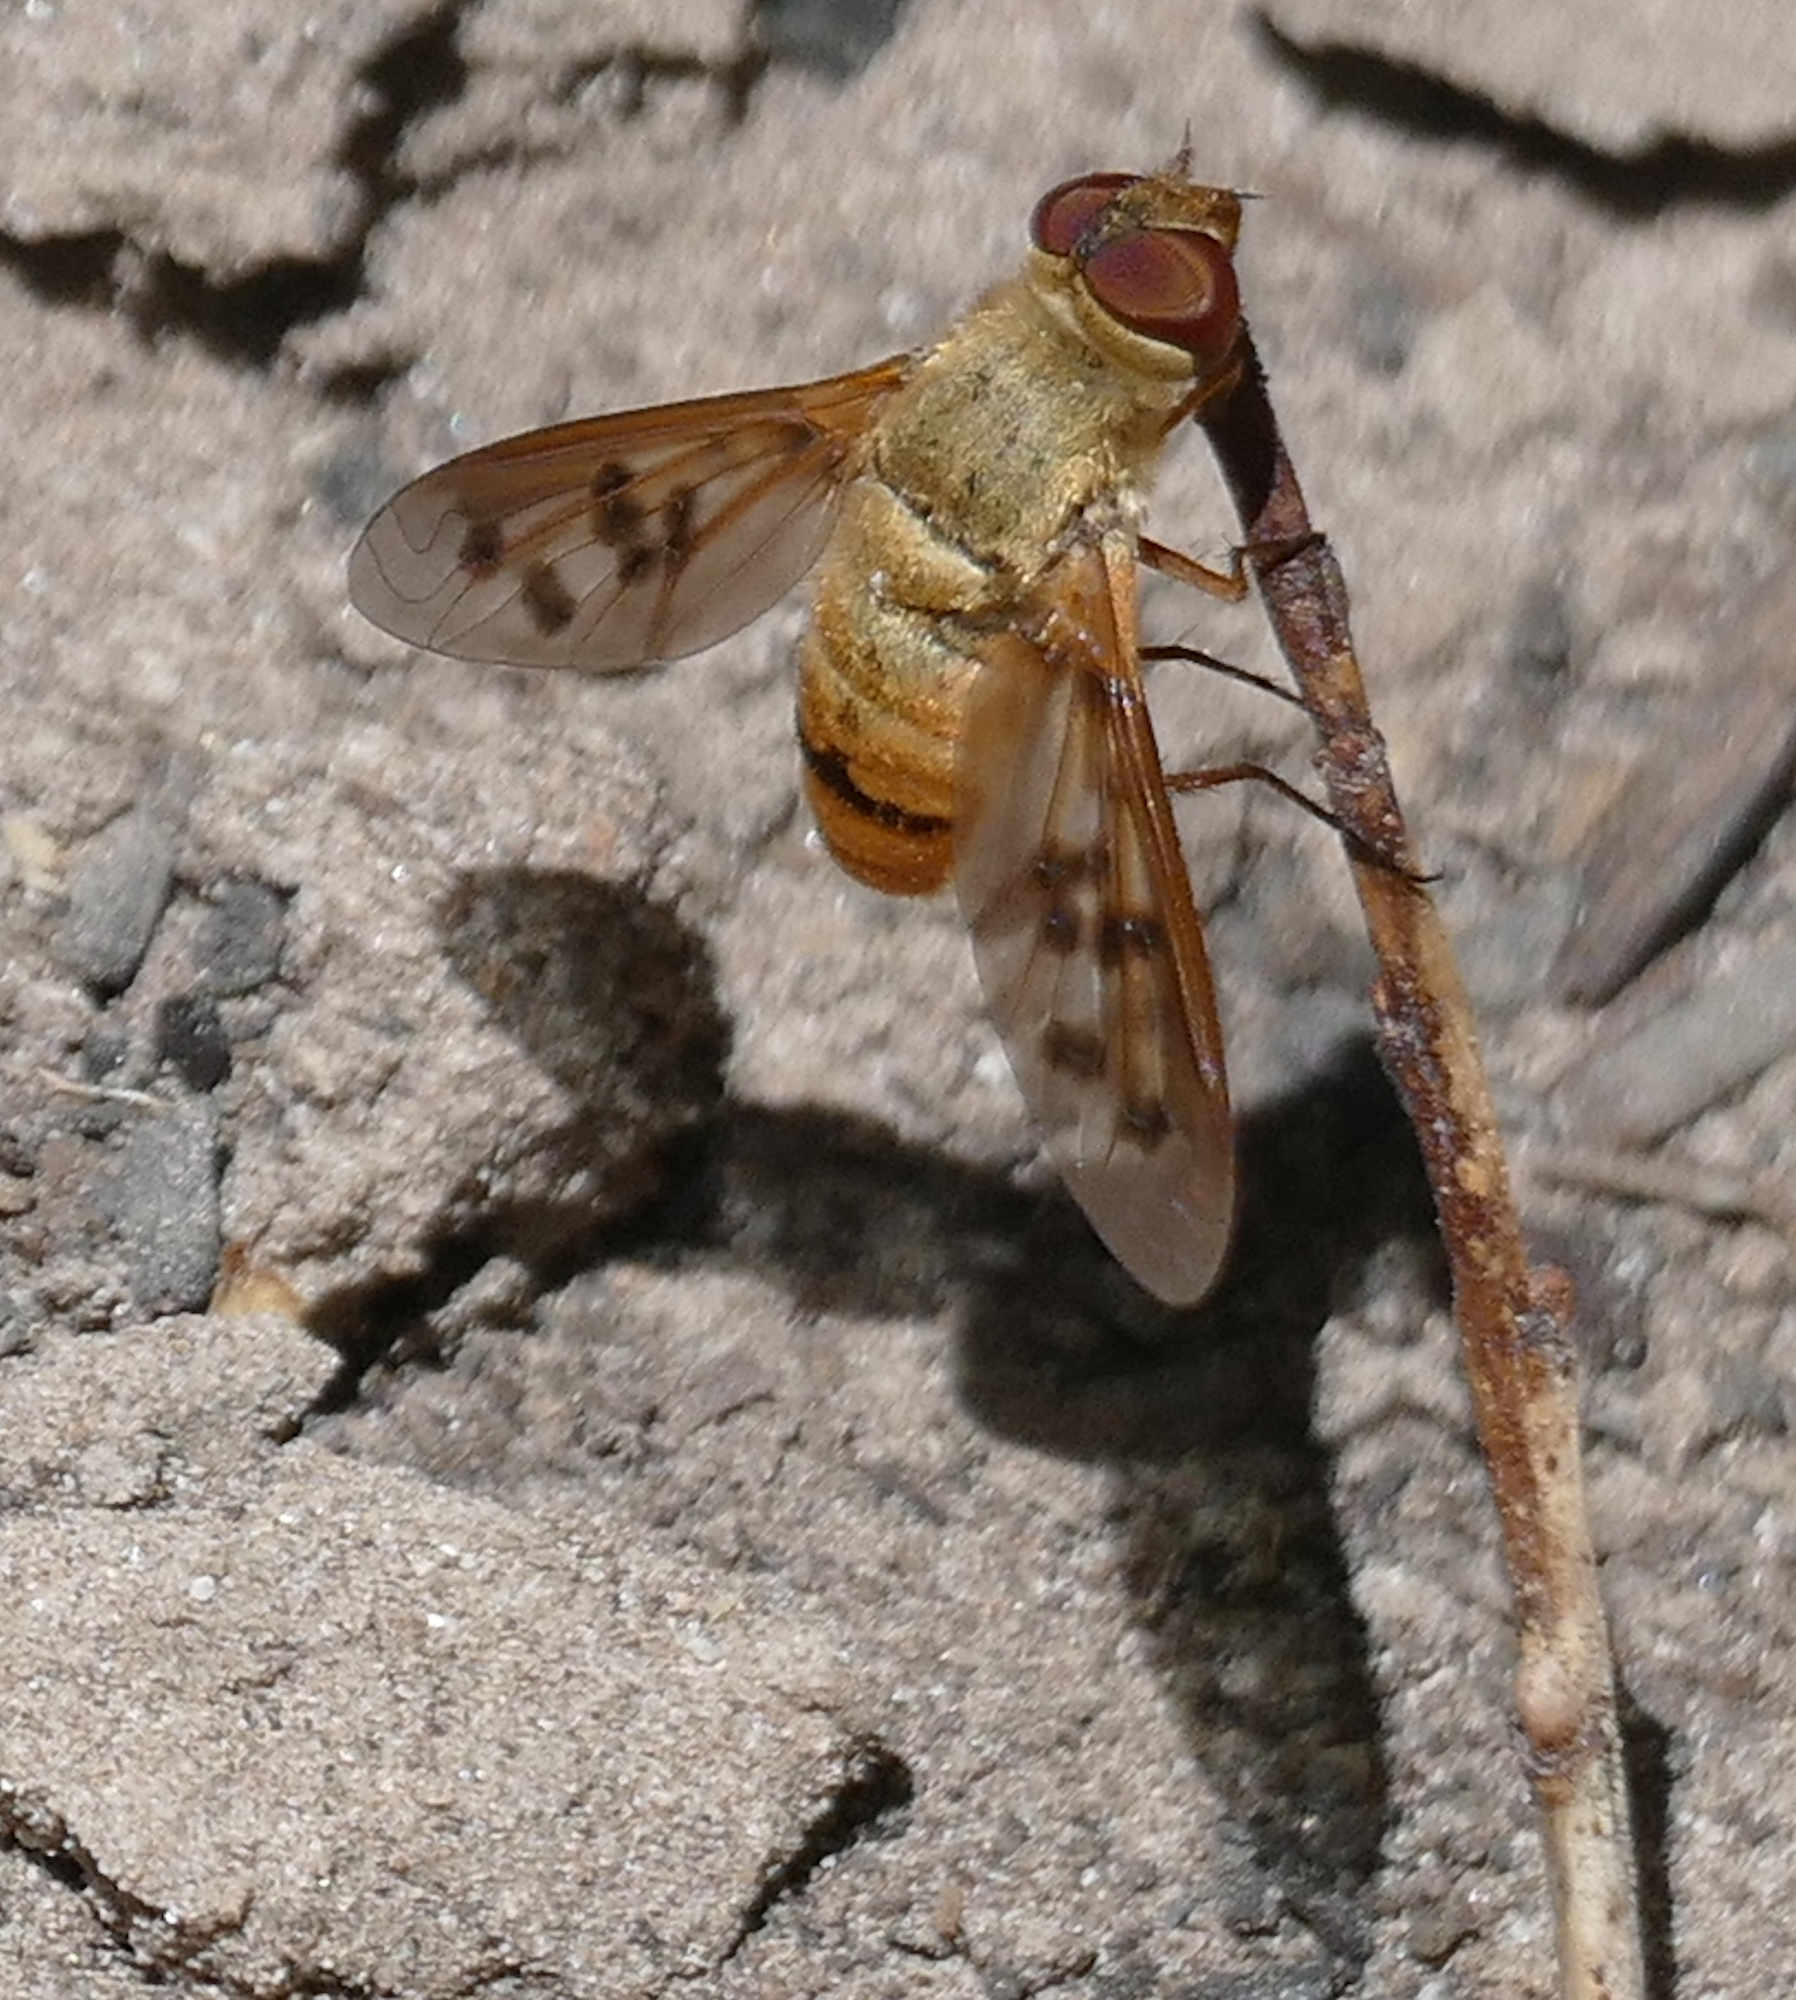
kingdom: Animalia
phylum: Arthropoda
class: Insecta
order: Diptera
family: Bombyliidae
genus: Neodiplocampta
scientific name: Neodiplocampta mirus
